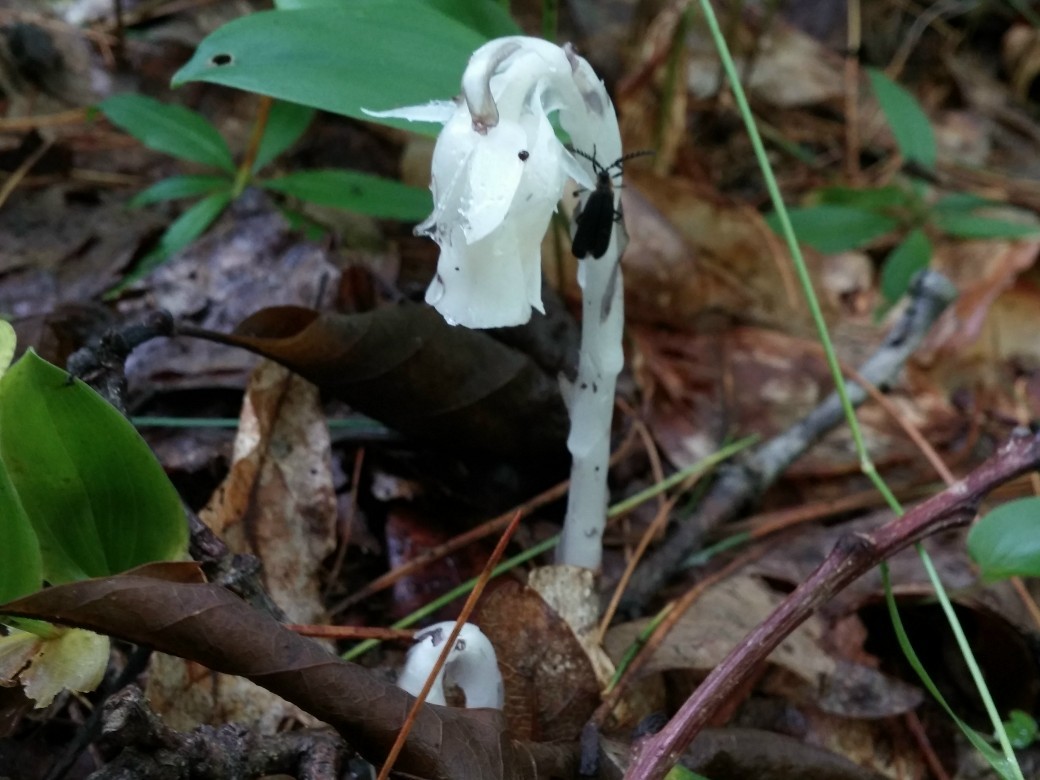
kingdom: Plantae
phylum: Tracheophyta
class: Magnoliopsida
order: Ericales
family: Ericaceae
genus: Monotropa
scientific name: Monotropa uniflora
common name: Convulsion root
